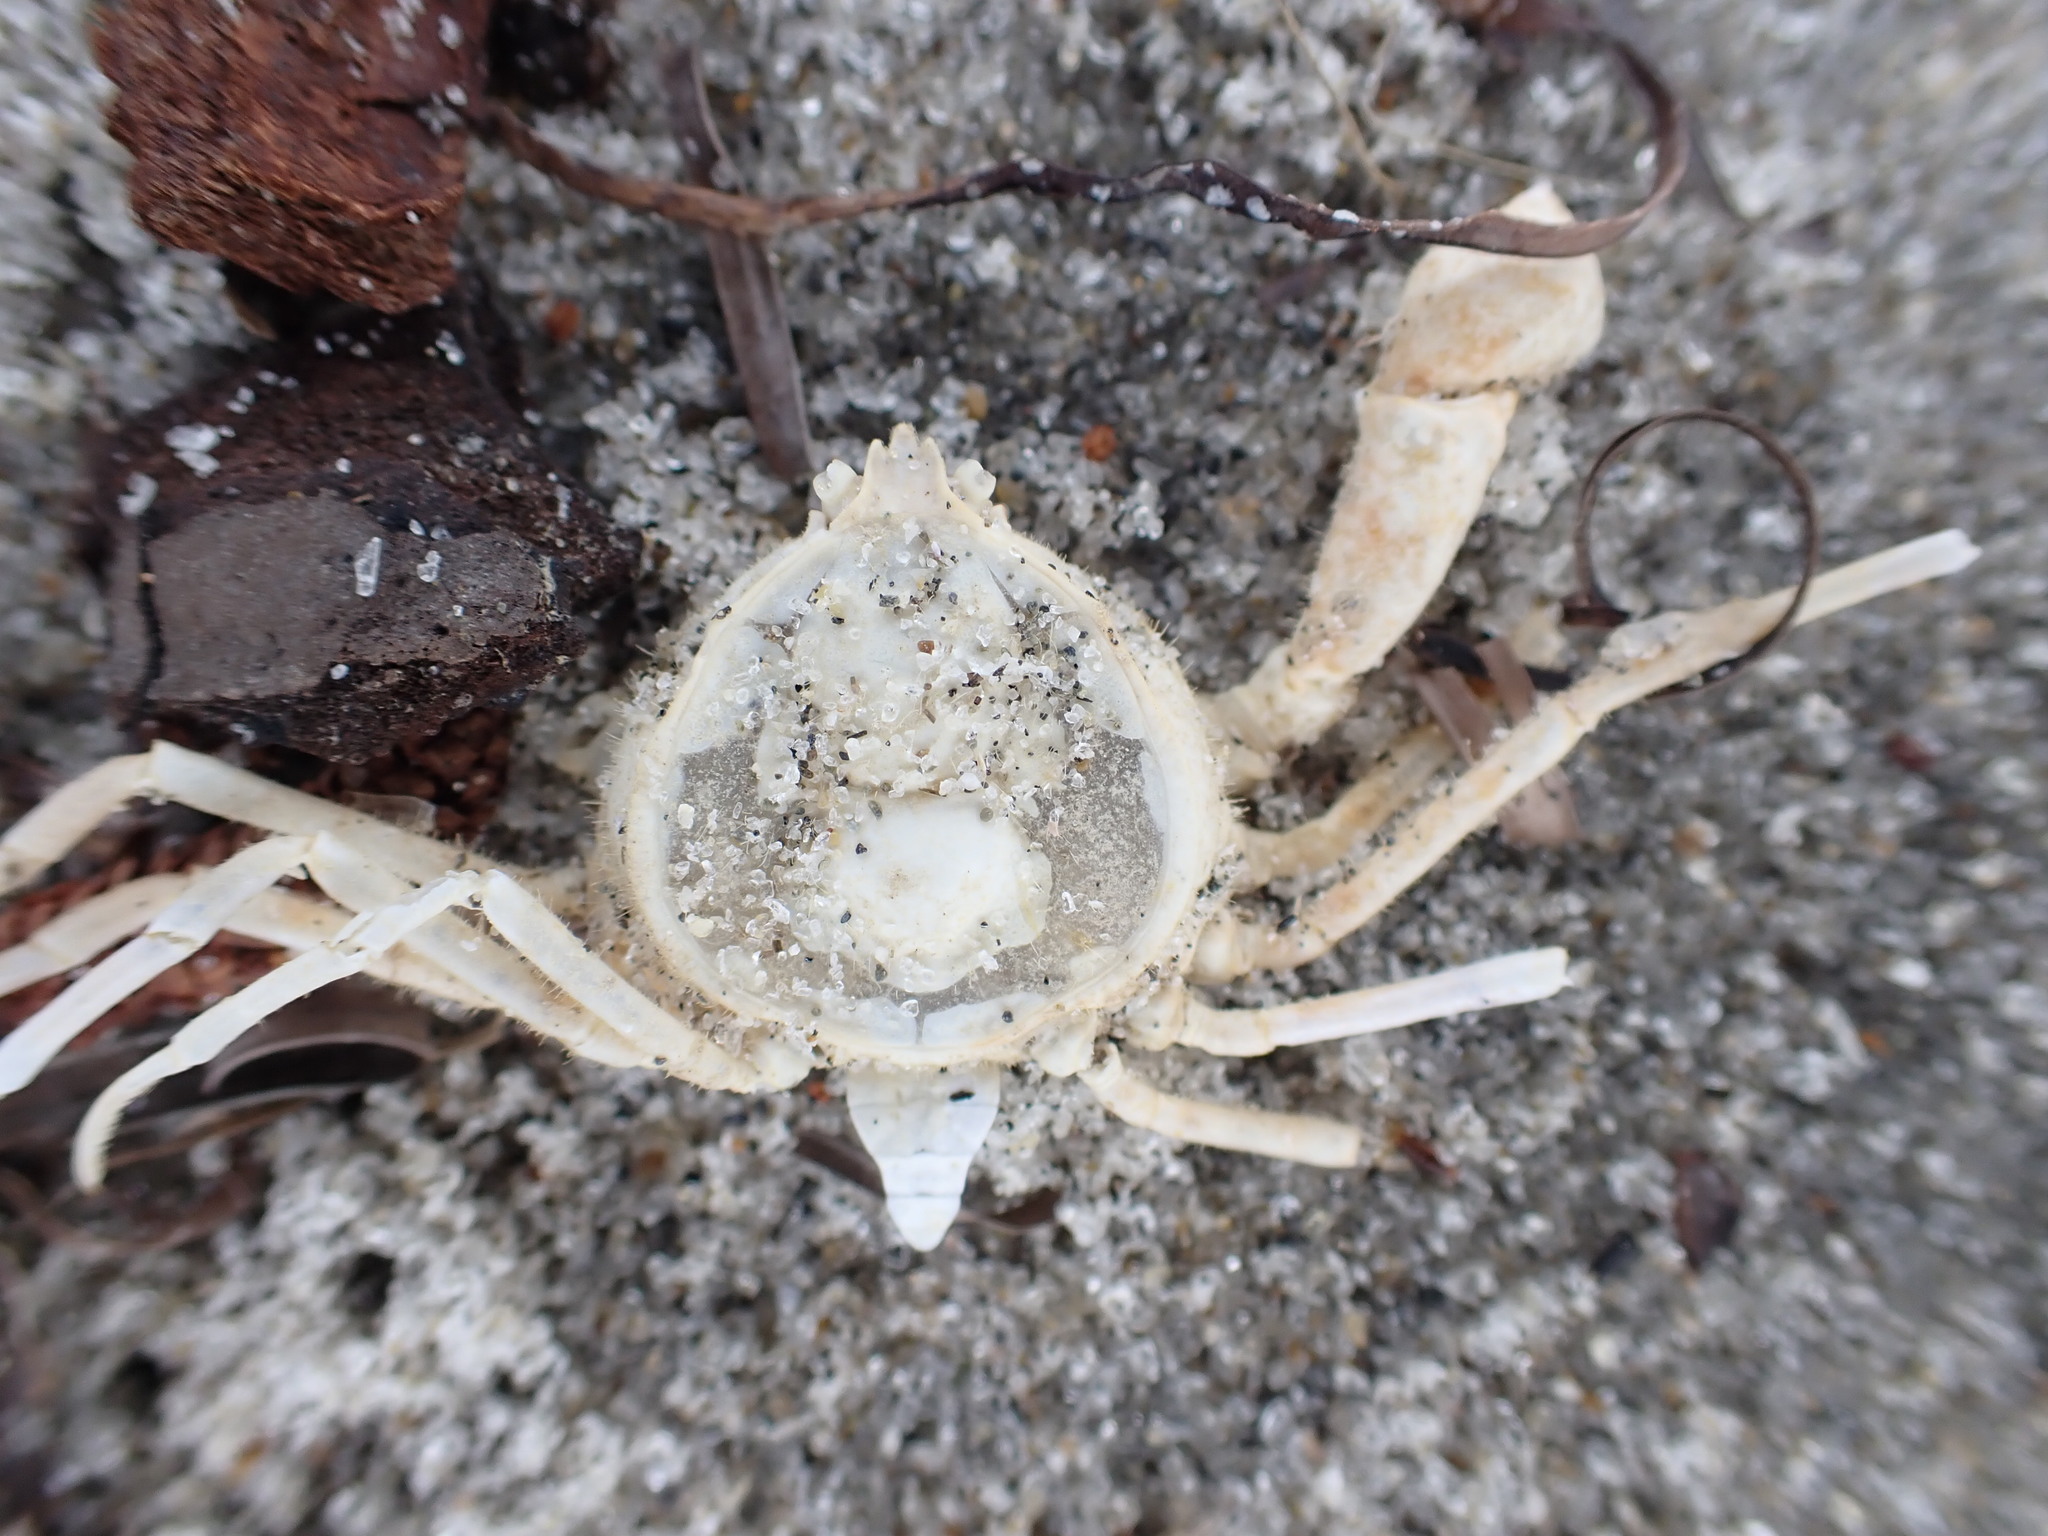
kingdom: Animalia
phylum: Arthropoda
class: Malacostraca
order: Decapoda
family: Hymenosomatidae
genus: Halicarcinus
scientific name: Halicarcinus whitei
